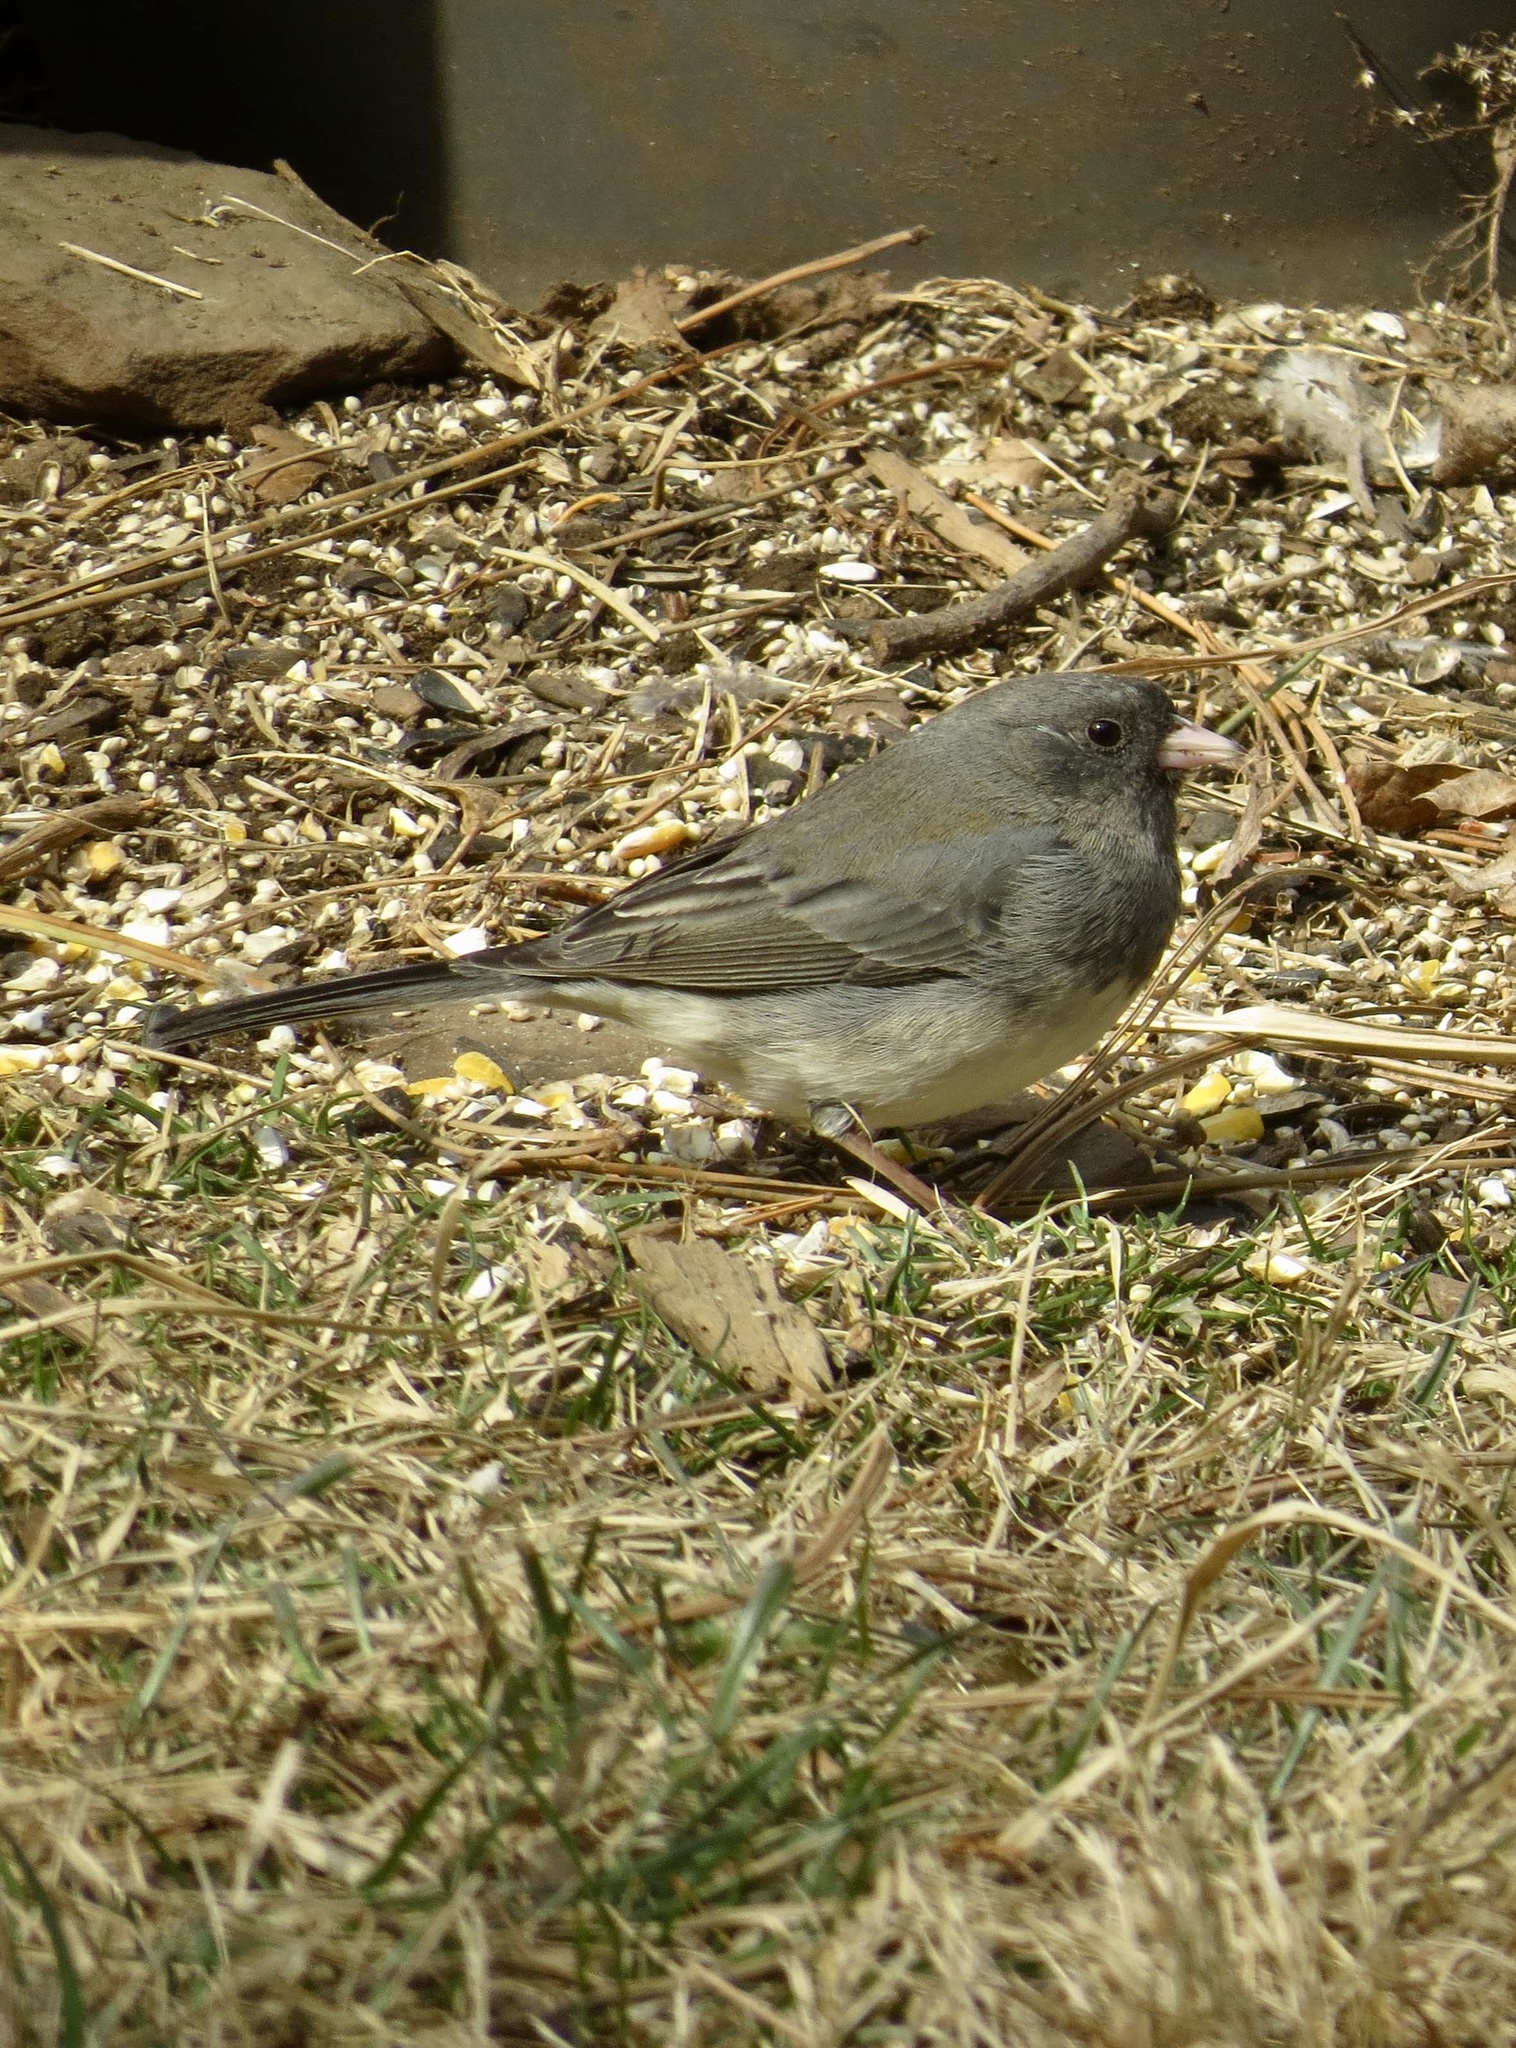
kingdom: Animalia
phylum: Chordata
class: Aves
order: Passeriformes
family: Passerellidae
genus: Junco
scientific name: Junco hyemalis
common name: Dark-eyed junco
